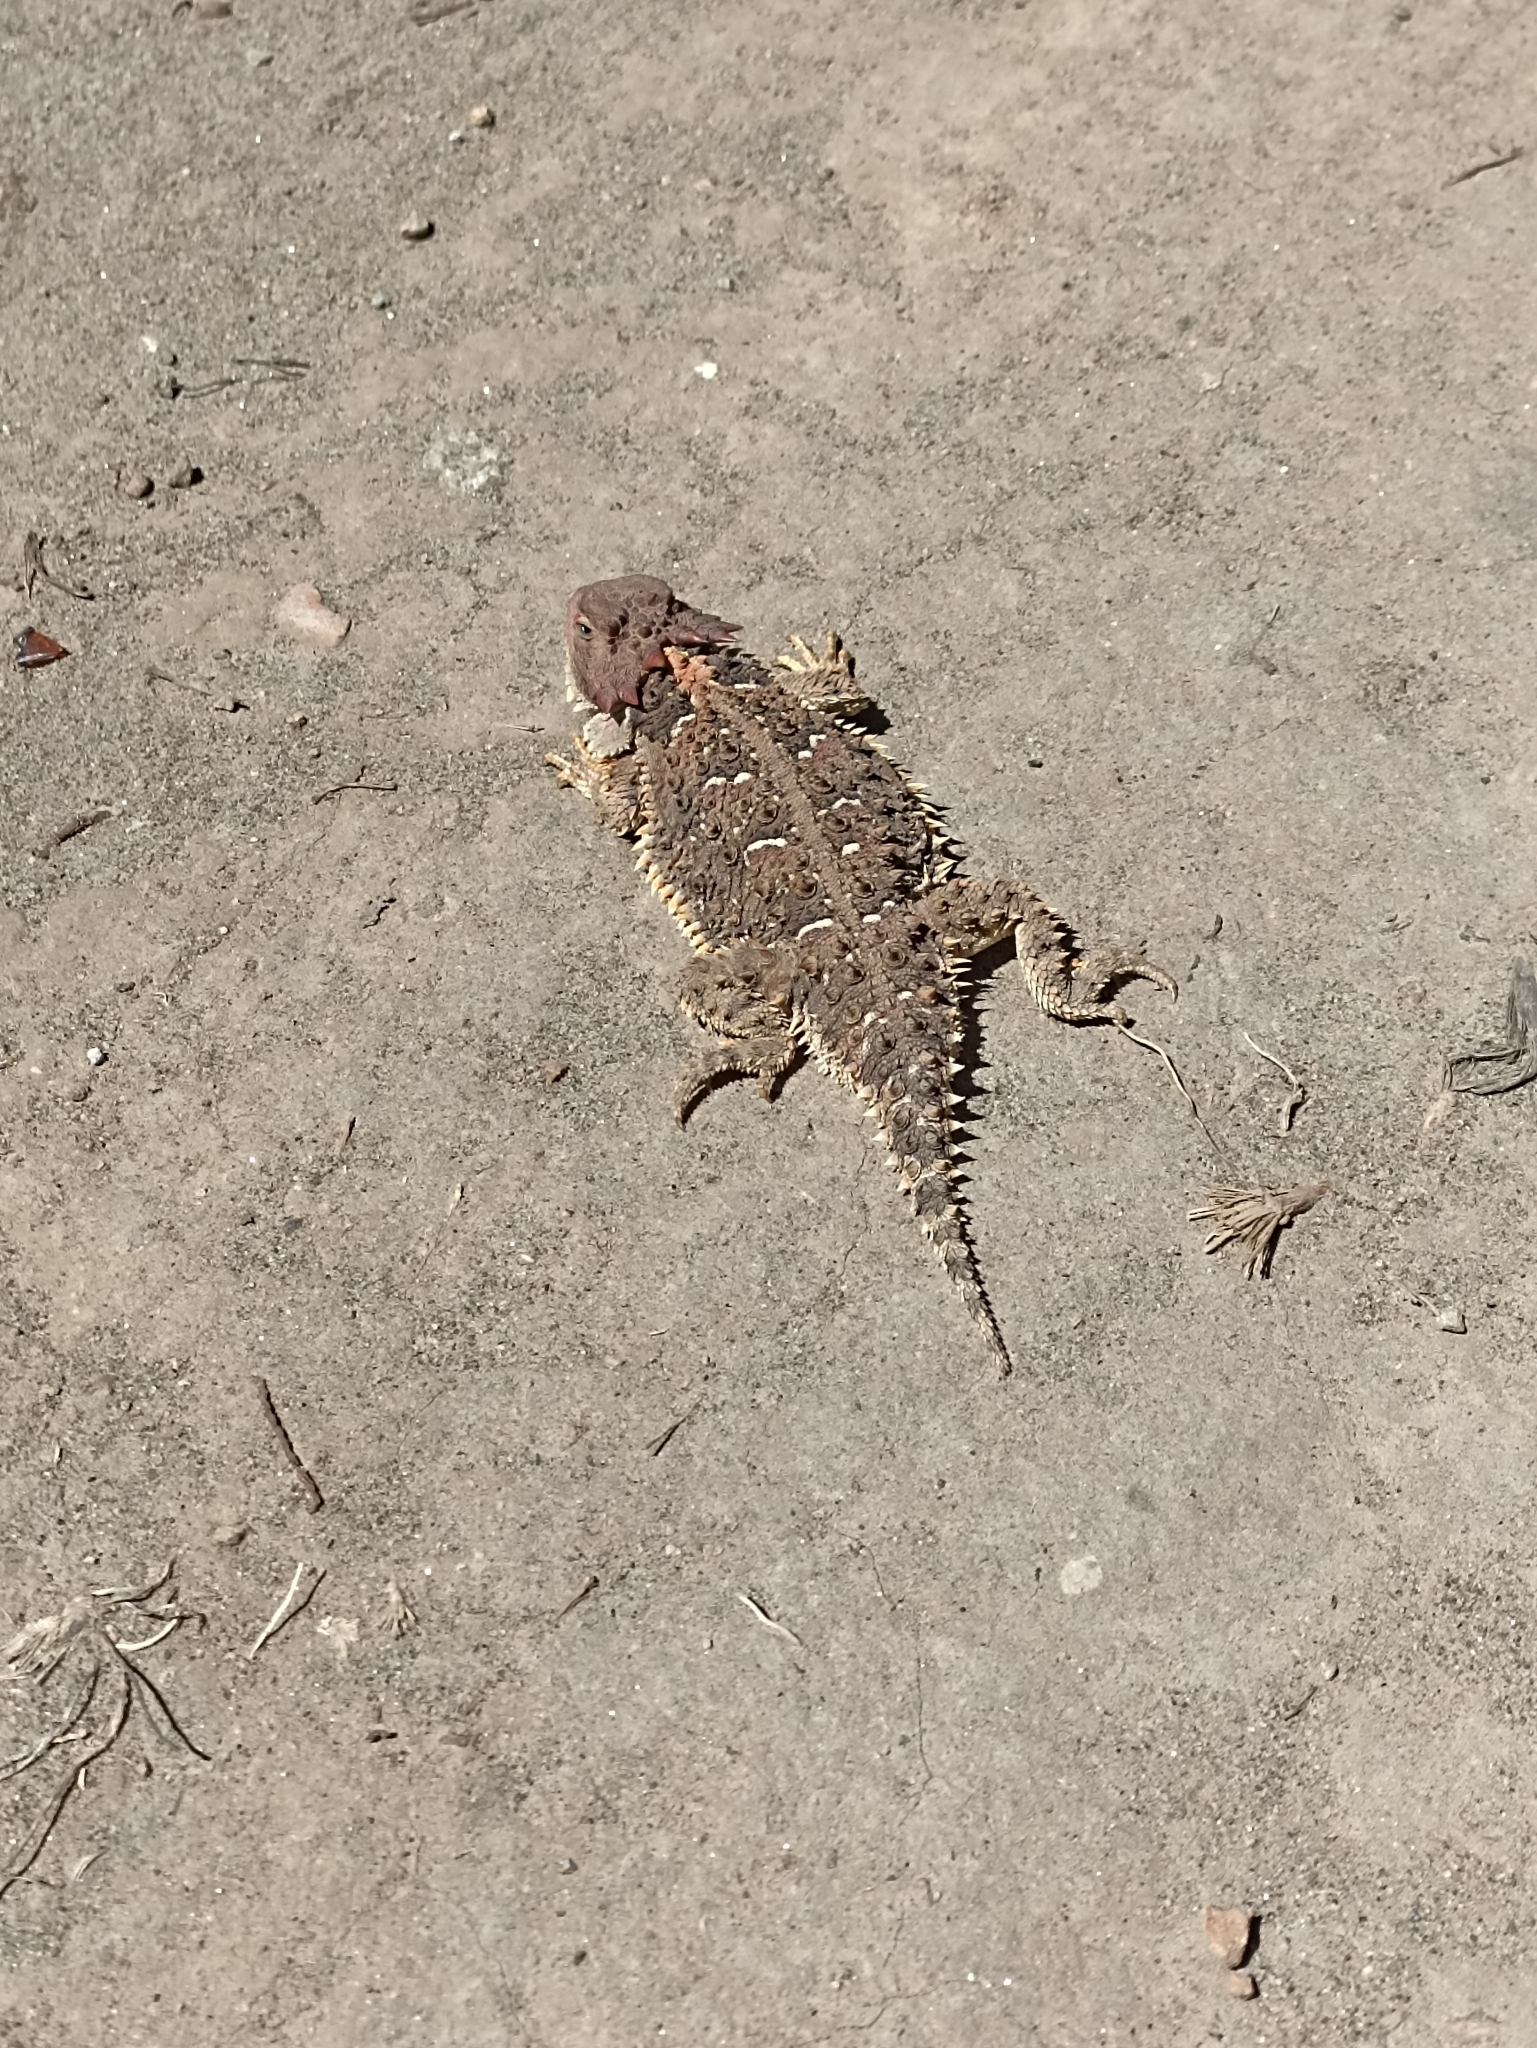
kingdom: Animalia
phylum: Chordata
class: Squamata
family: Phrynosomatidae
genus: Phrynosoma
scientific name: Phrynosoma orbiculare
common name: Mountain horned lizard
